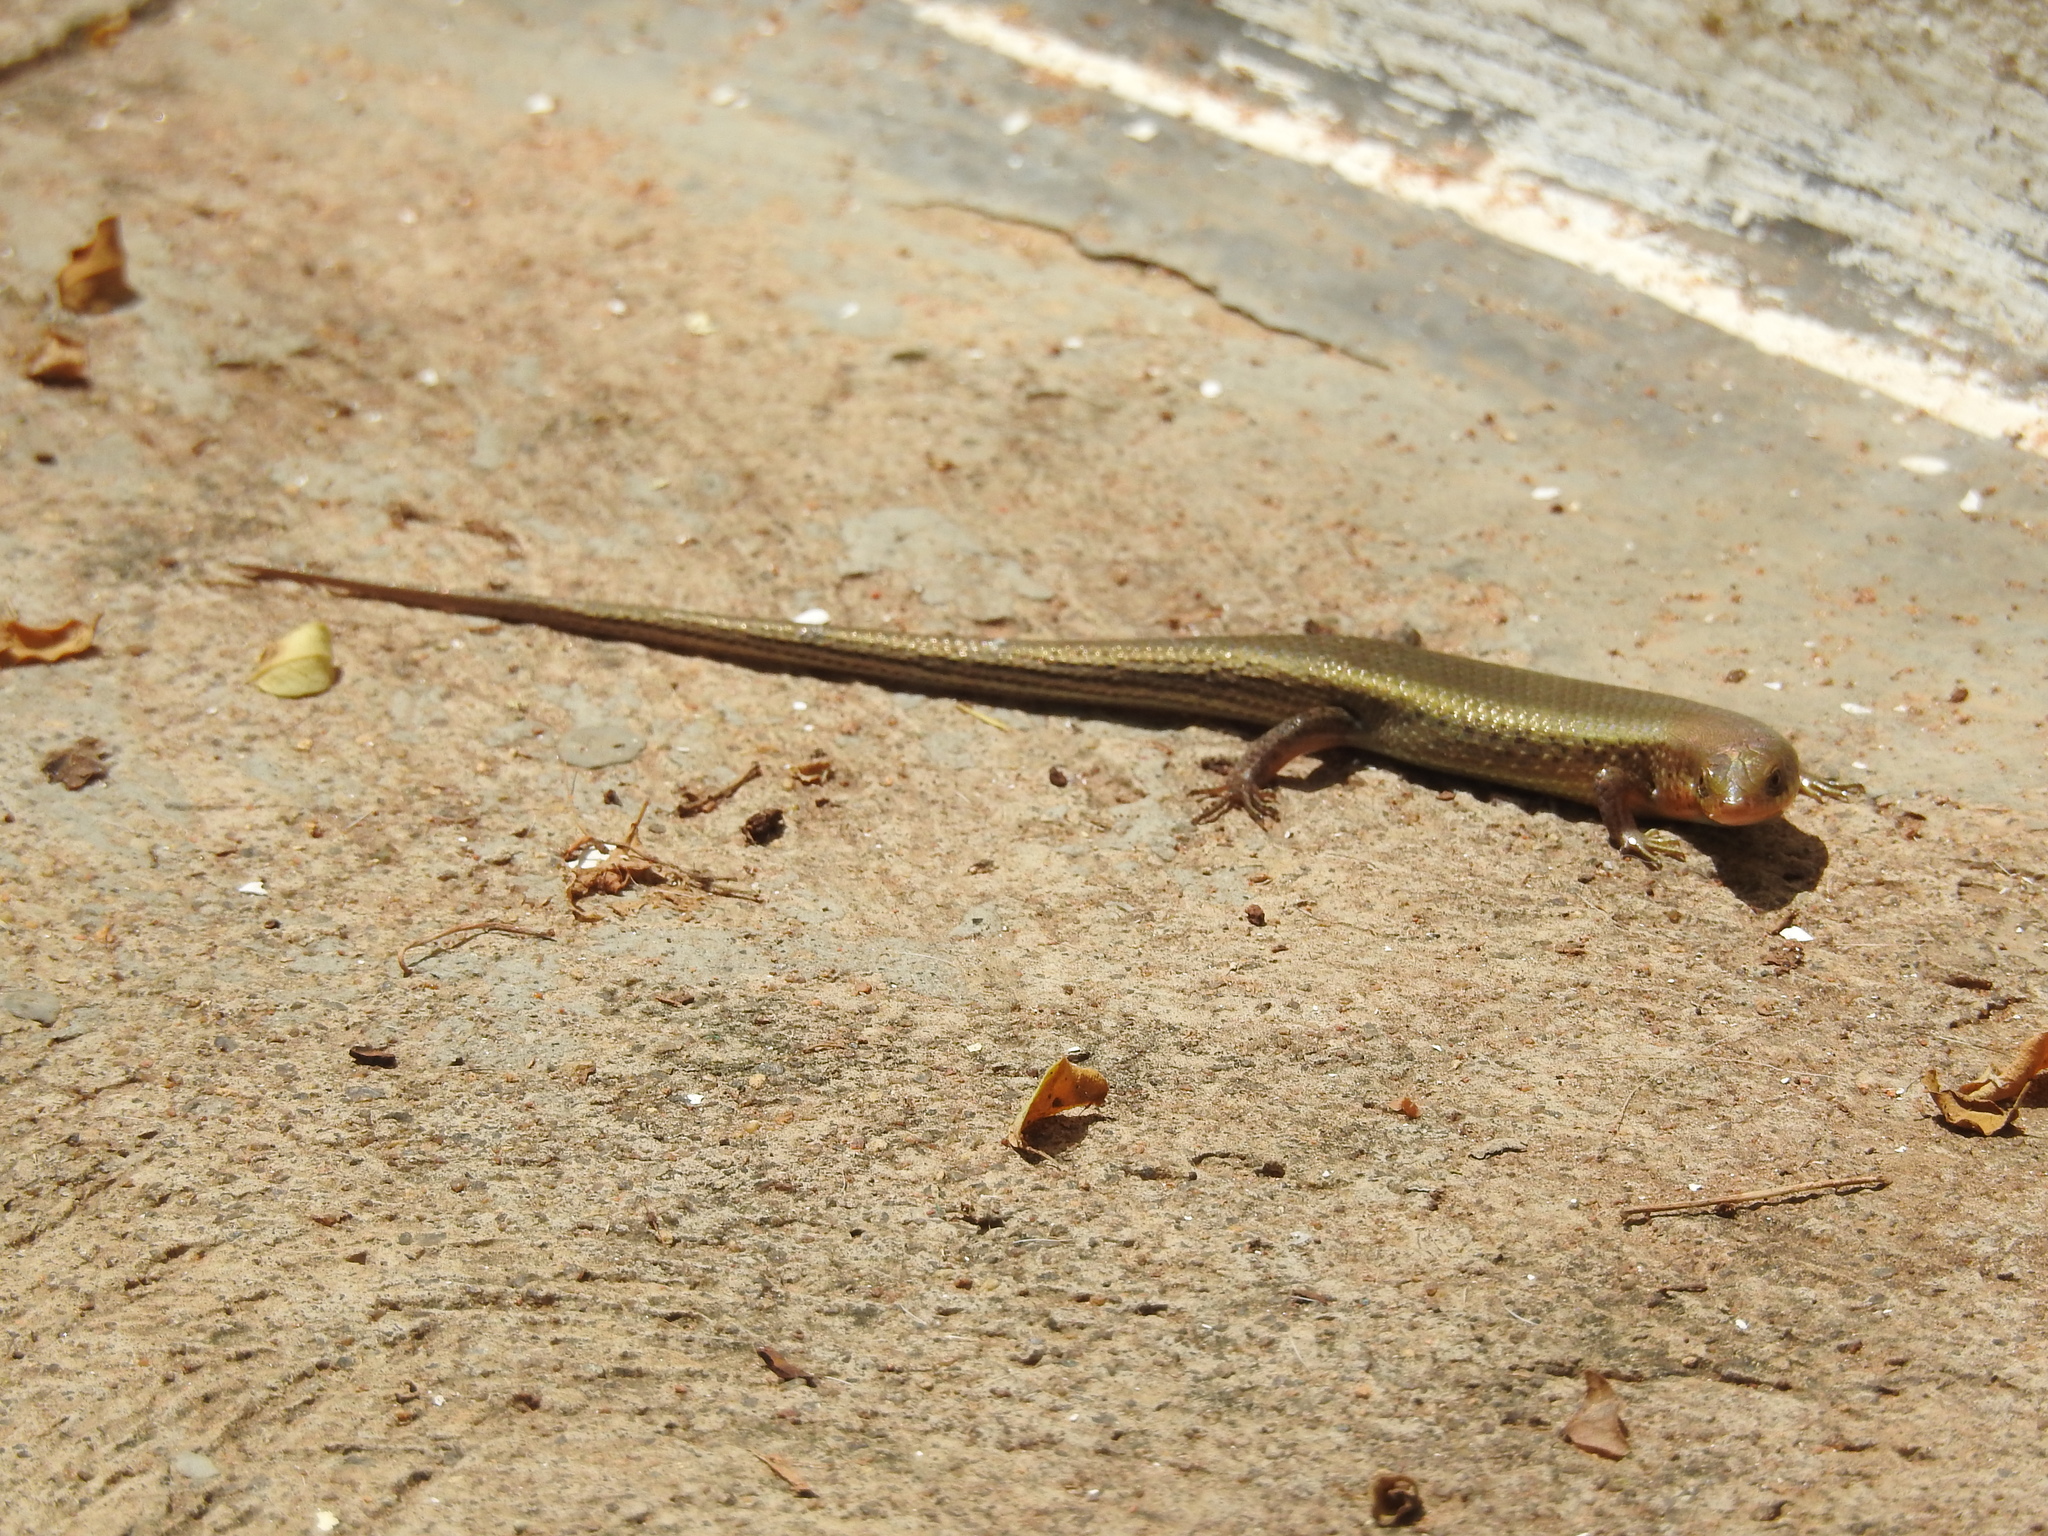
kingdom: Animalia
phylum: Chordata
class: Squamata
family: Scincidae
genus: Eutropis
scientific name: Eutropis carinata
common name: Keeled indian mabuya
